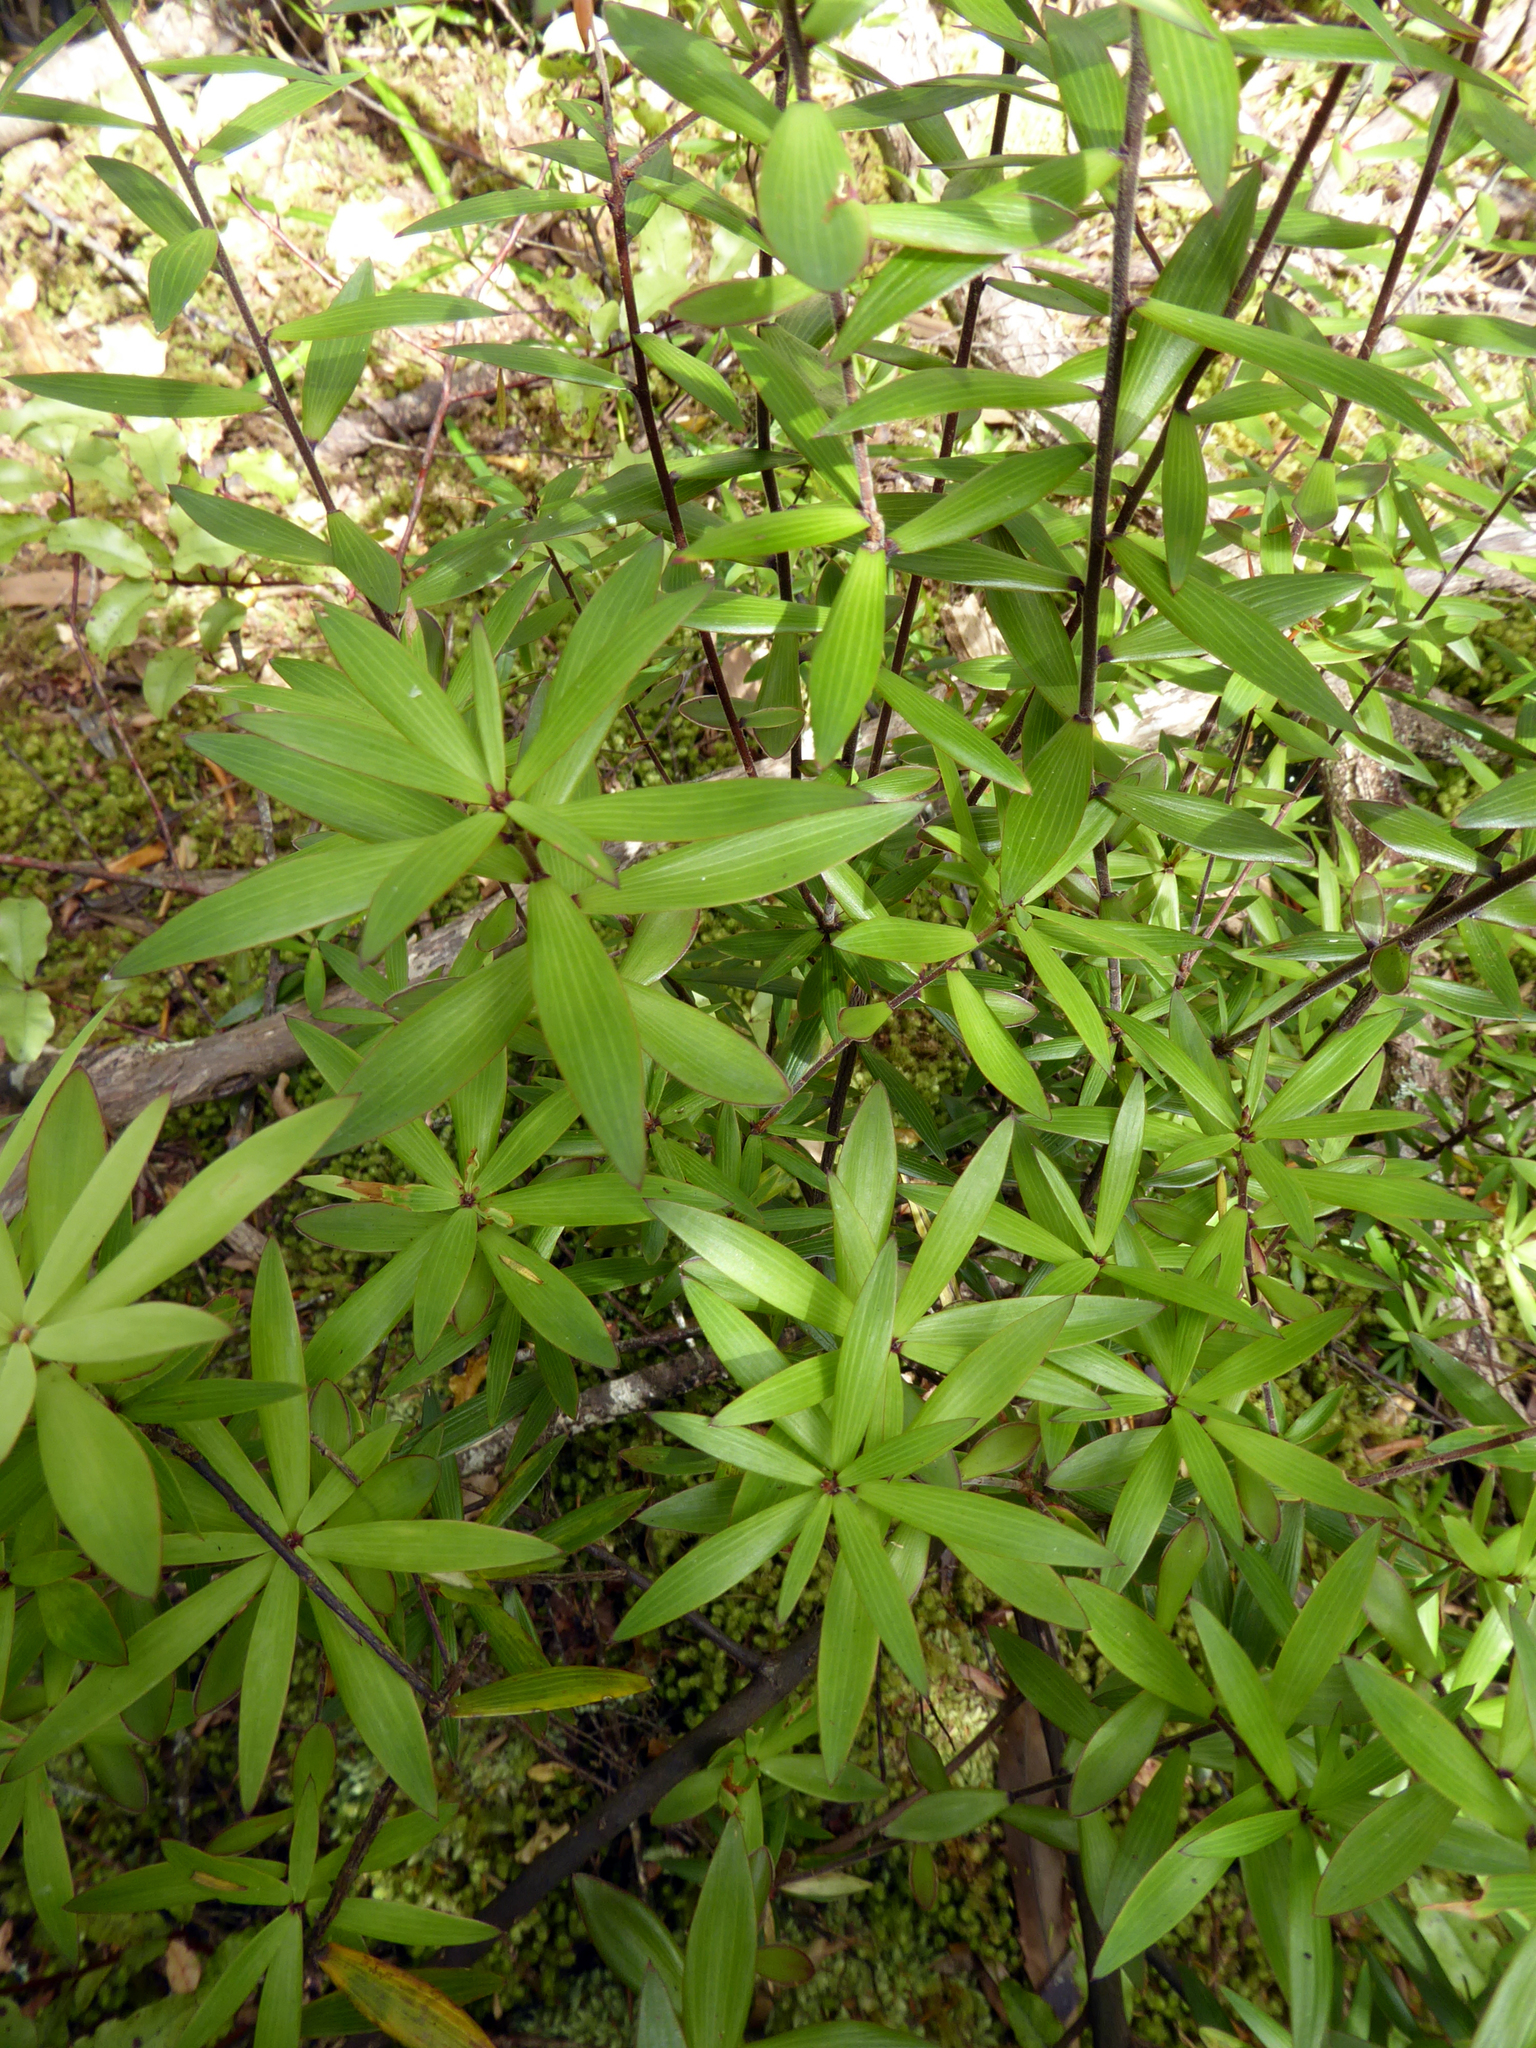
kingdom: Plantae
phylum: Tracheophyta
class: Magnoliopsida
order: Ericales
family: Ericaceae
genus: Leucopogon
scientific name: Leucopogon fasciculatus
